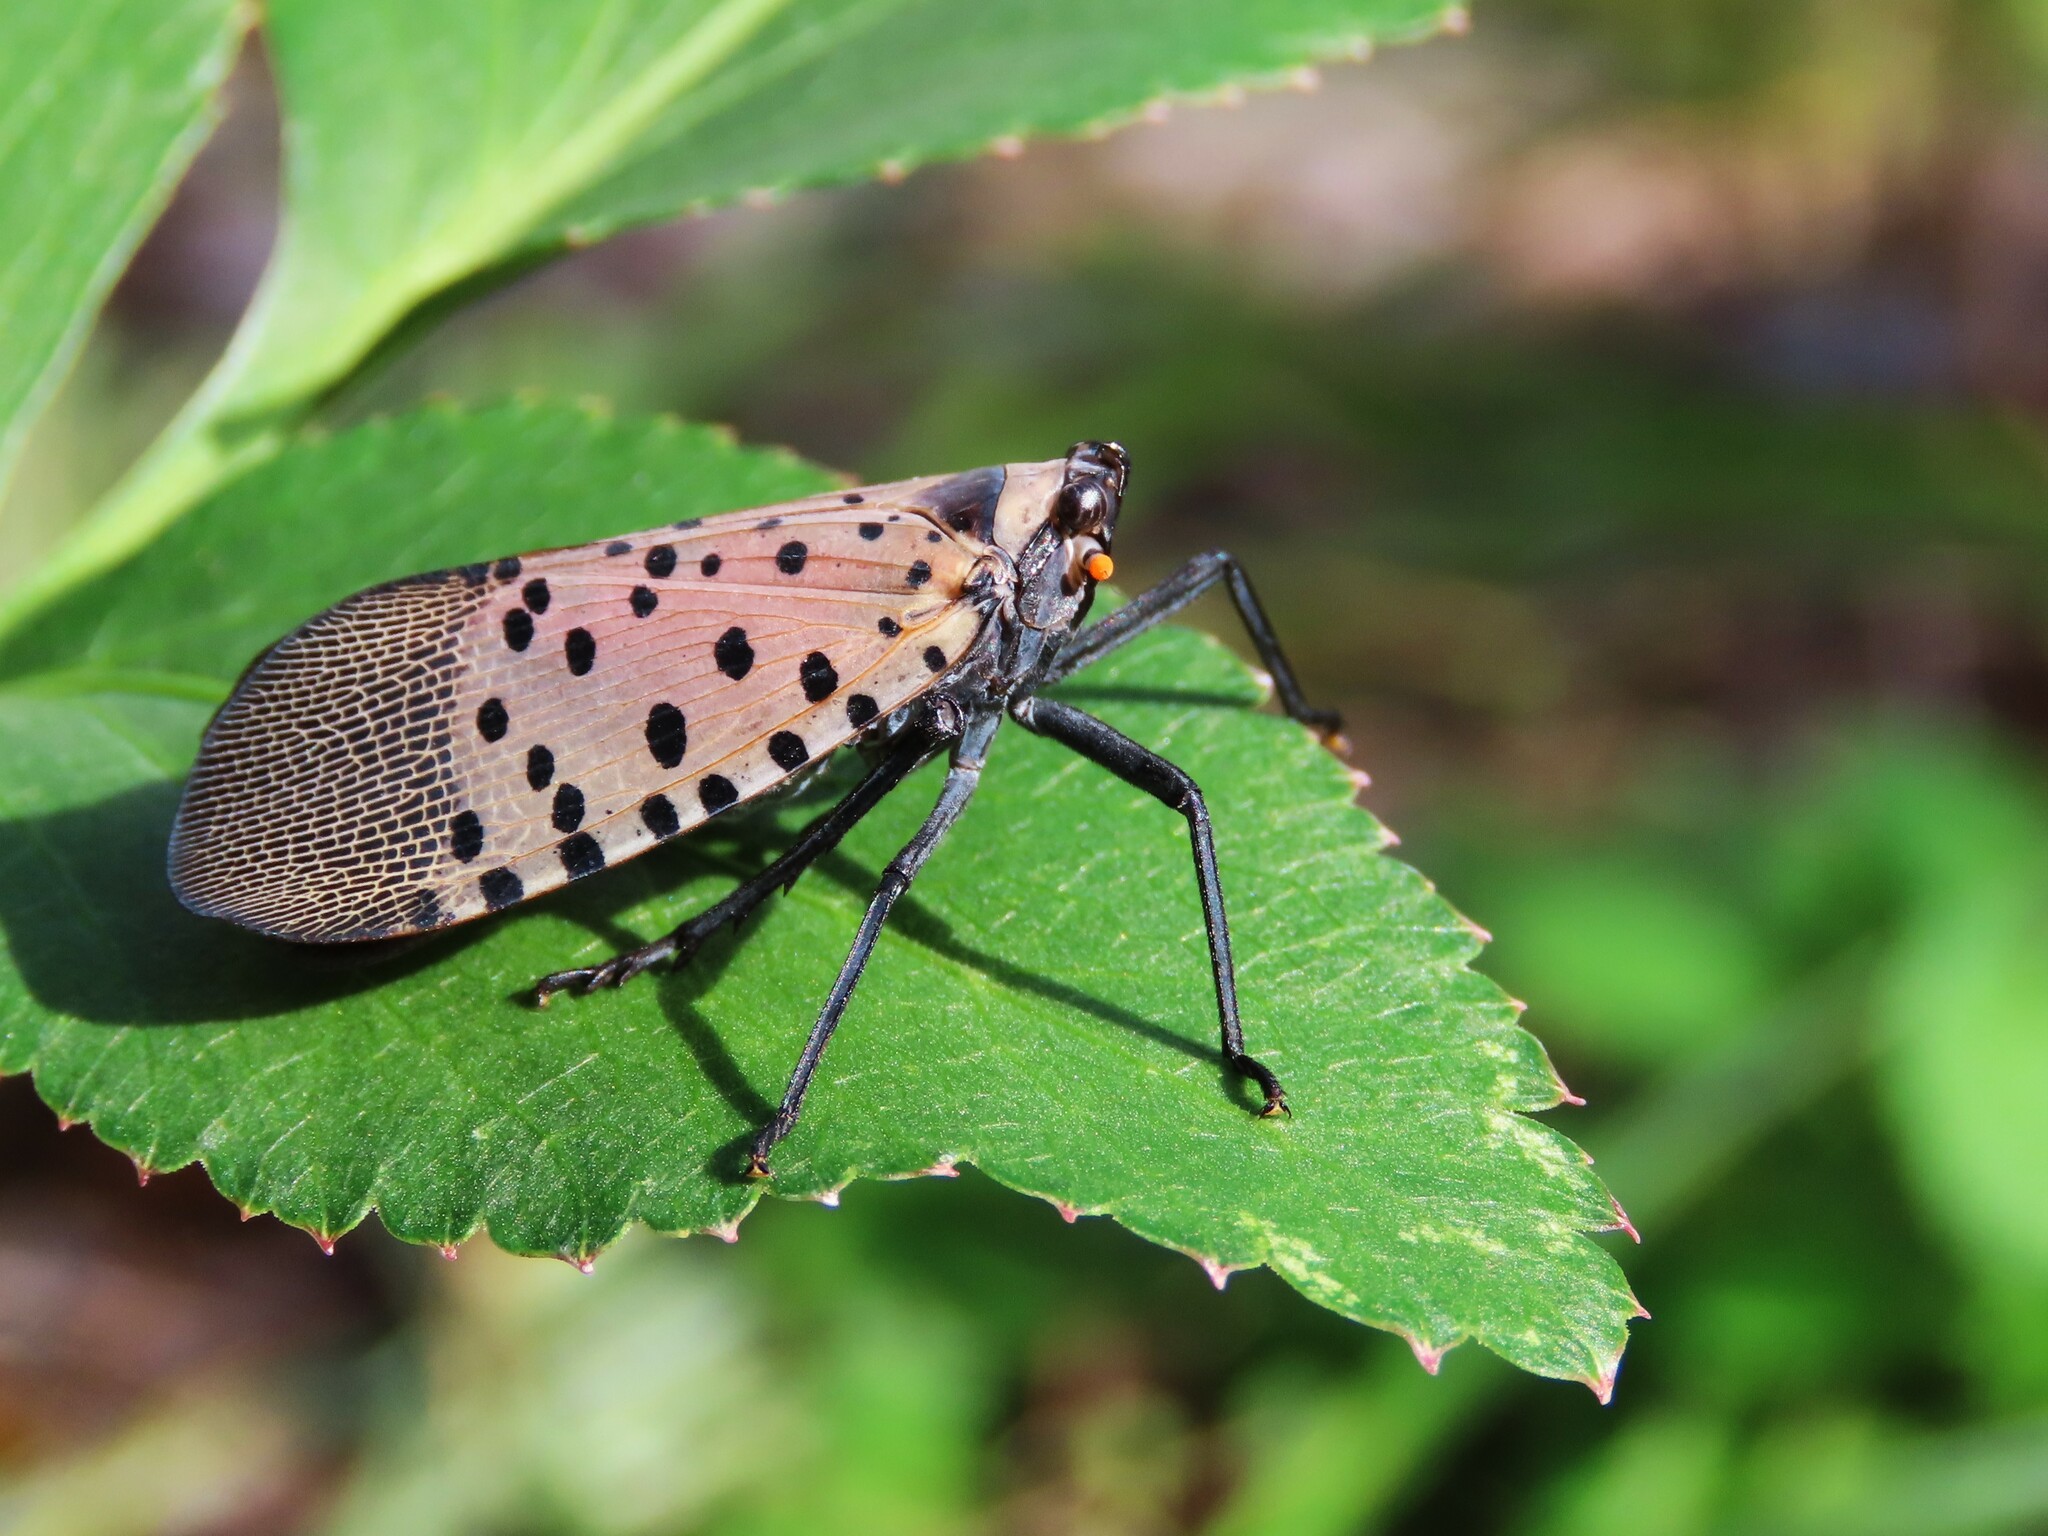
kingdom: Animalia
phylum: Arthropoda
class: Insecta
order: Hemiptera
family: Fulgoridae
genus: Lycorma
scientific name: Lycorma delicatula
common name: Spotted lanternfly
